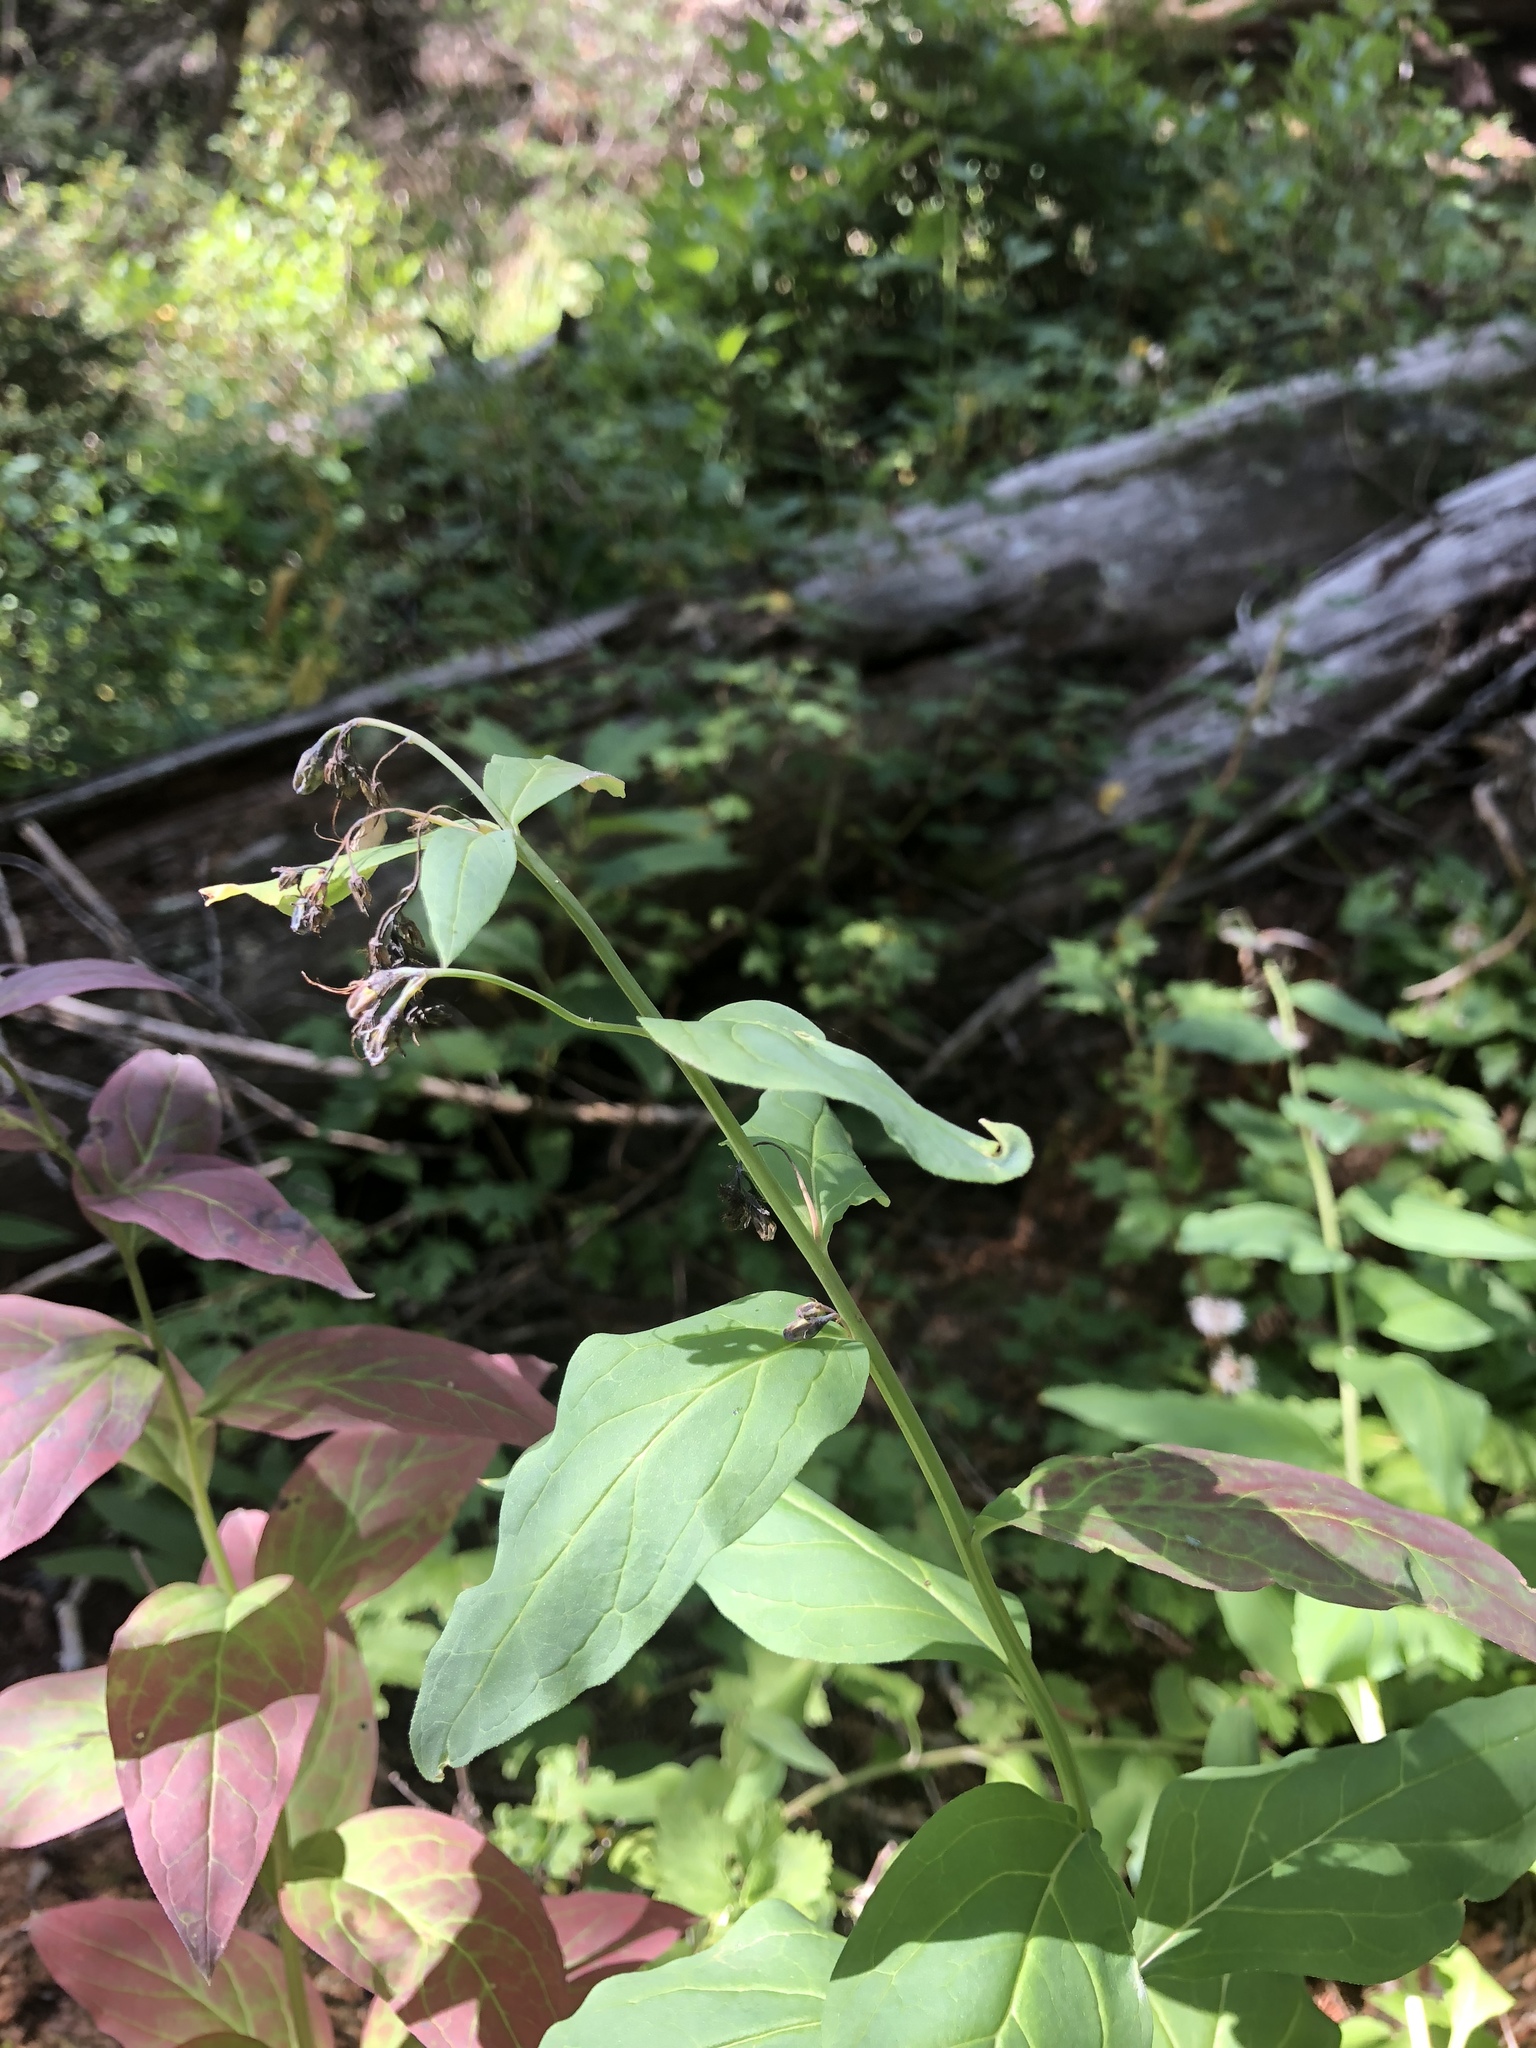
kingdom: Plantae
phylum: Tracheophyta
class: Magnoliopsida
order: Boraginales
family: Boraginaceae
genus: Mertensia
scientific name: Mertensia ciliata
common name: Tall chiming-bells
